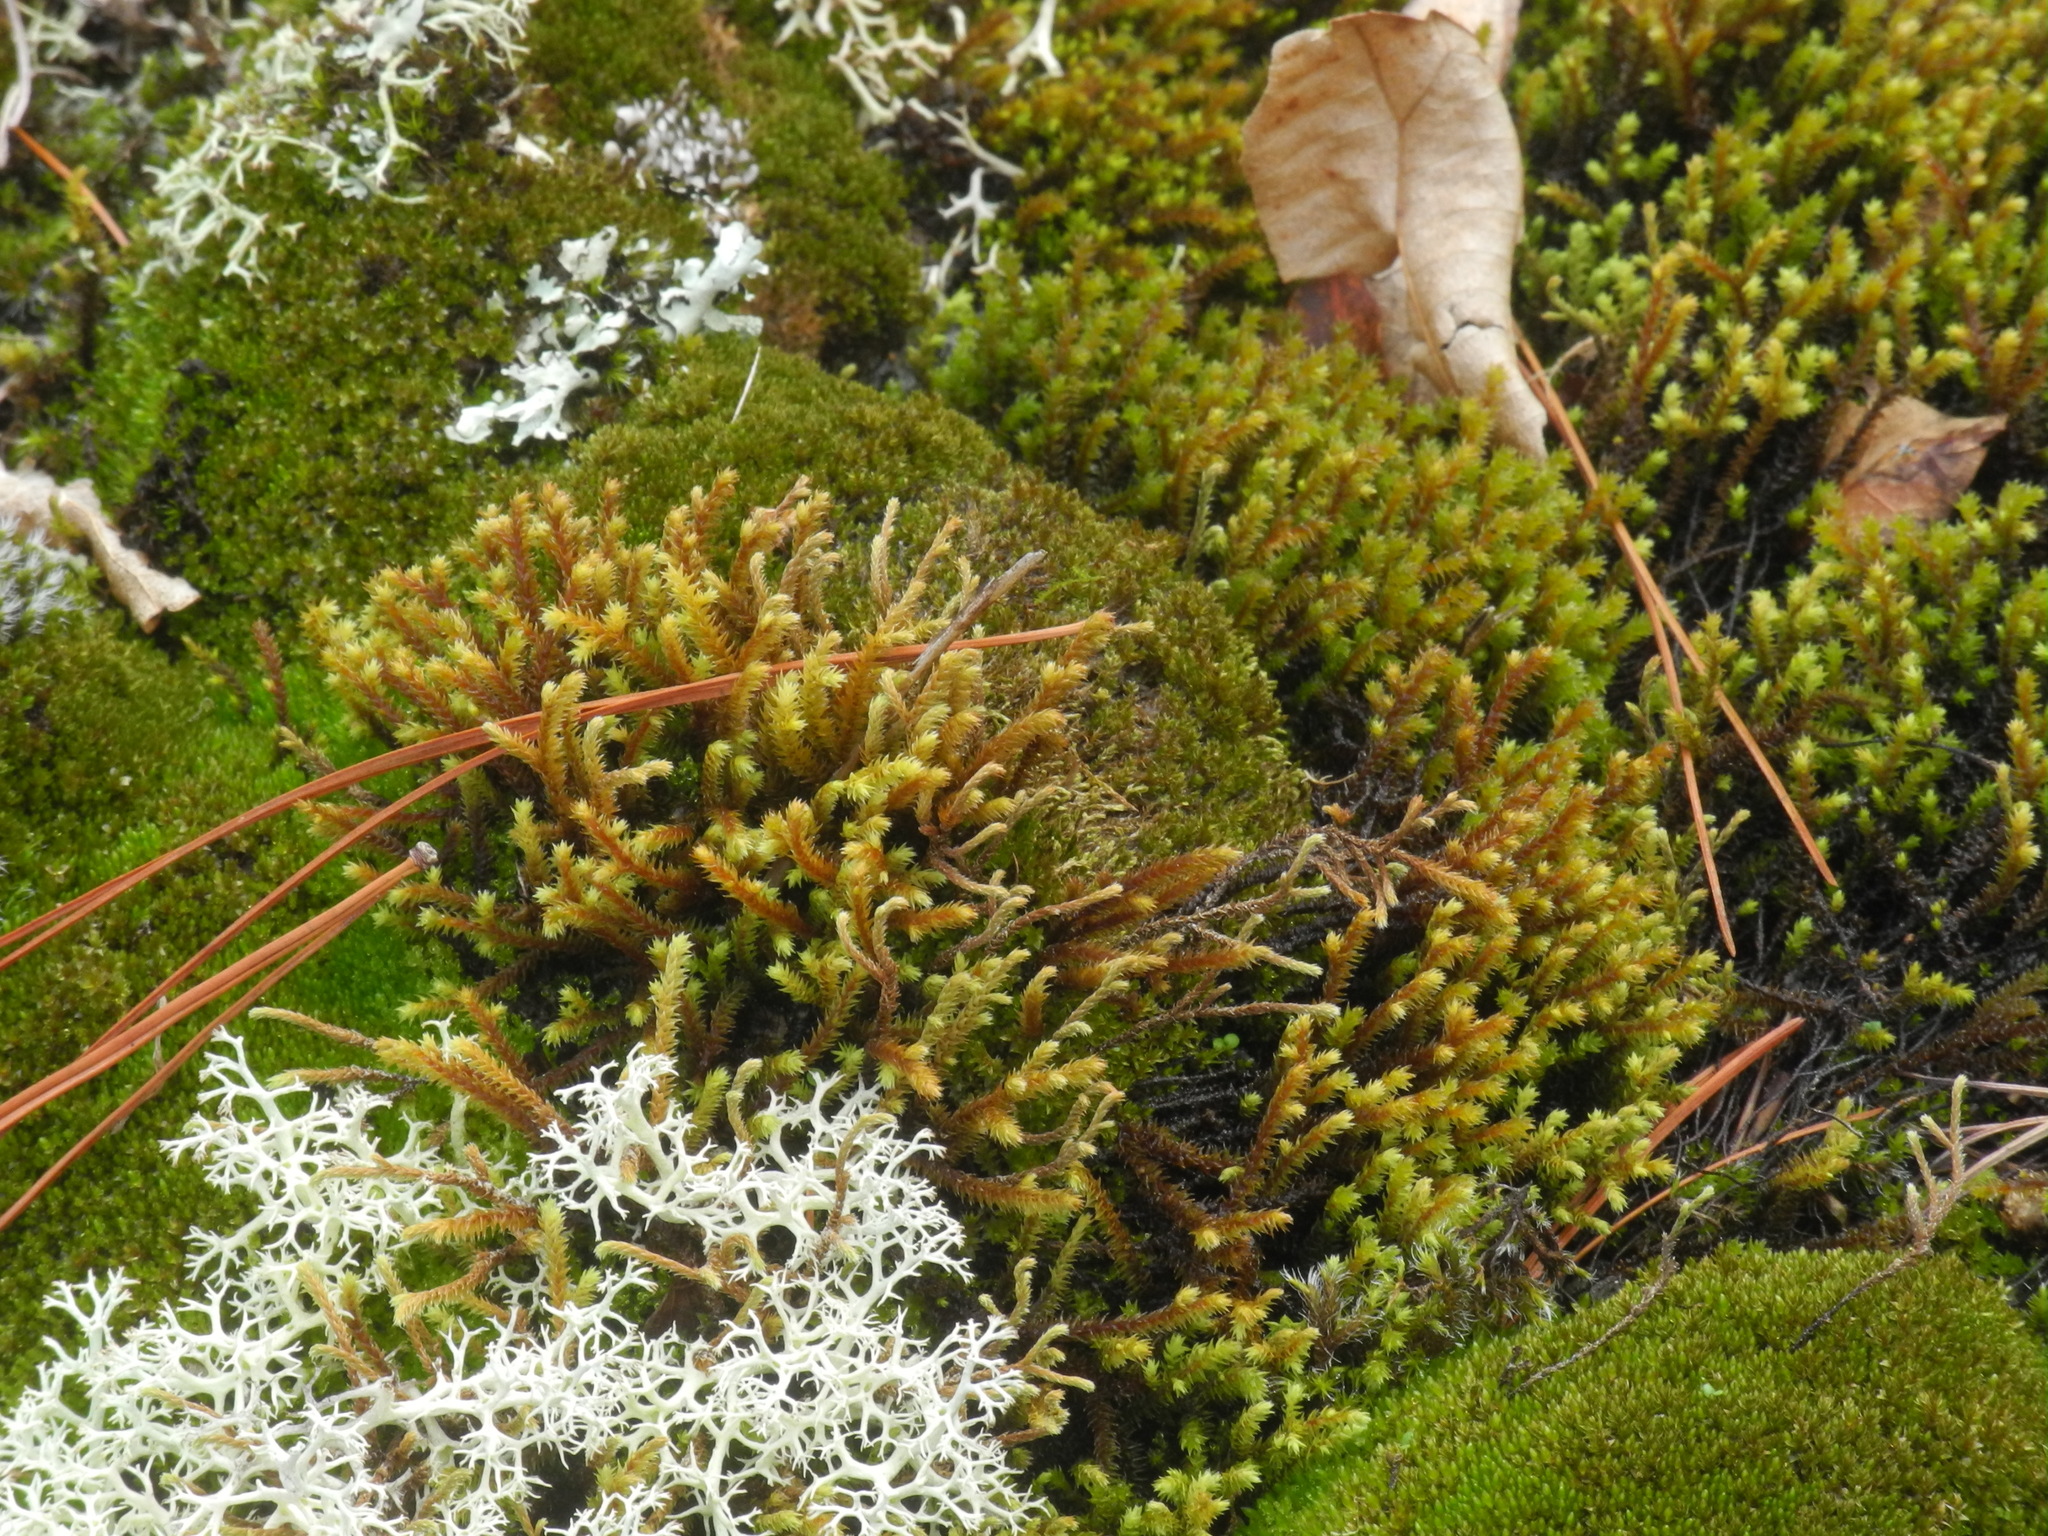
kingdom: Plantae
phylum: Bryophyta
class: Bryopsida
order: Hedwigiales
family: Hedwigiaceae
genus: Hedwigia
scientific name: Hedwigia ciliata
